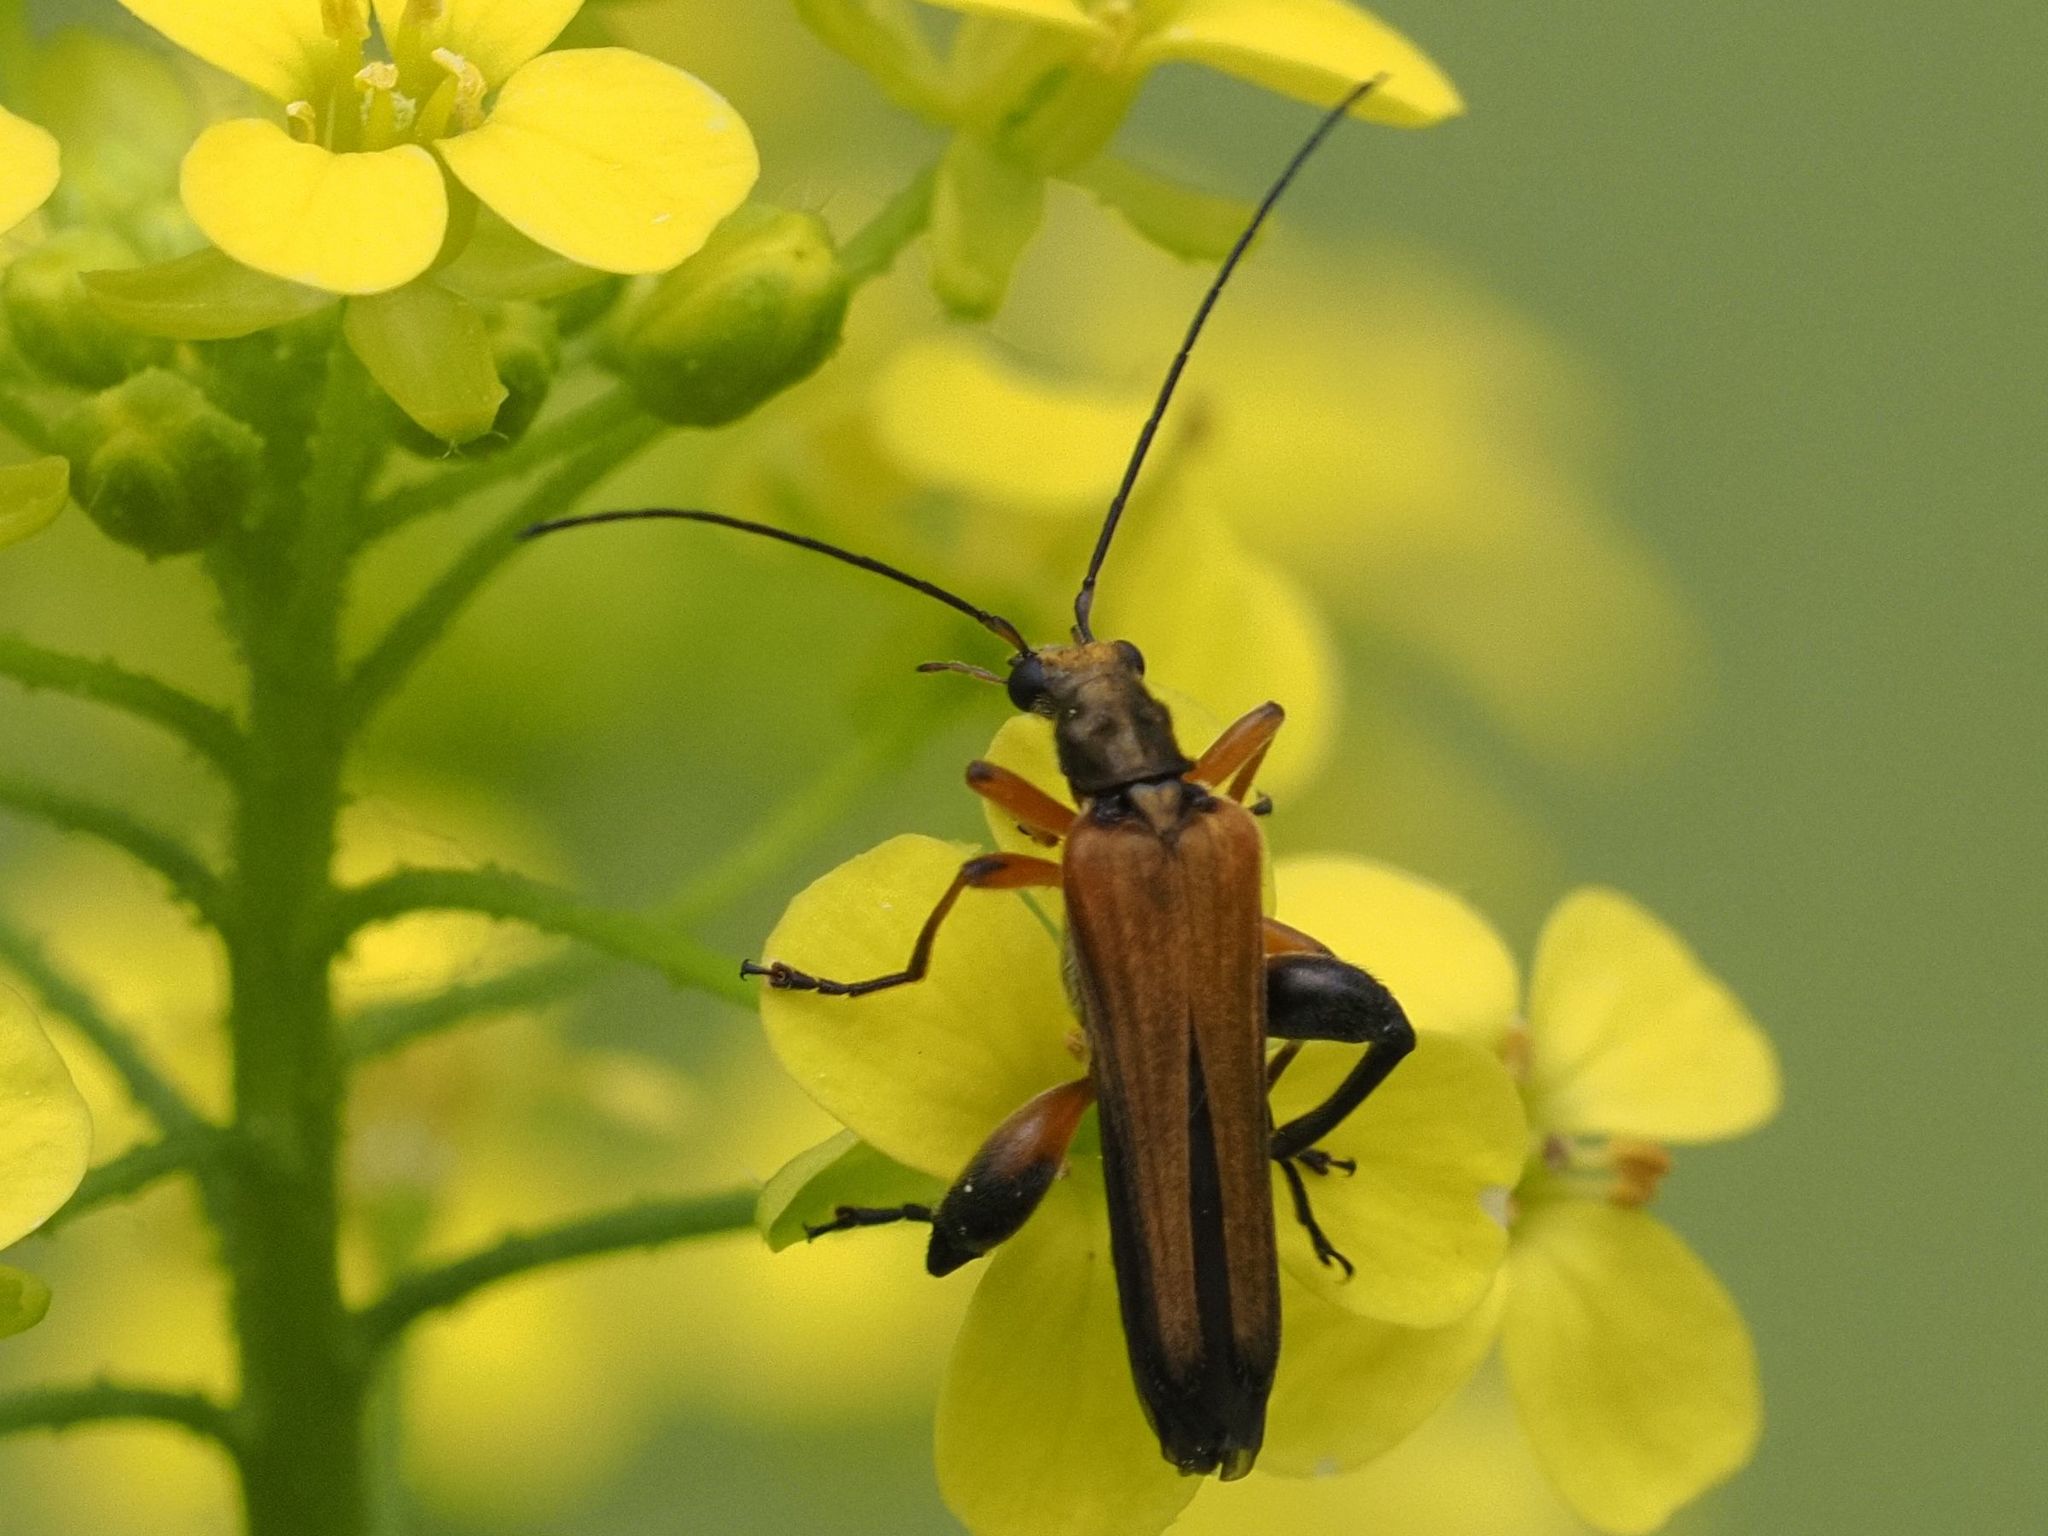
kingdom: Animalia
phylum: Arthropoda
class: Insecta
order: Coleoptera
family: Oedemeridae
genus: Oedemera
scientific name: Oedemera podagrariae
